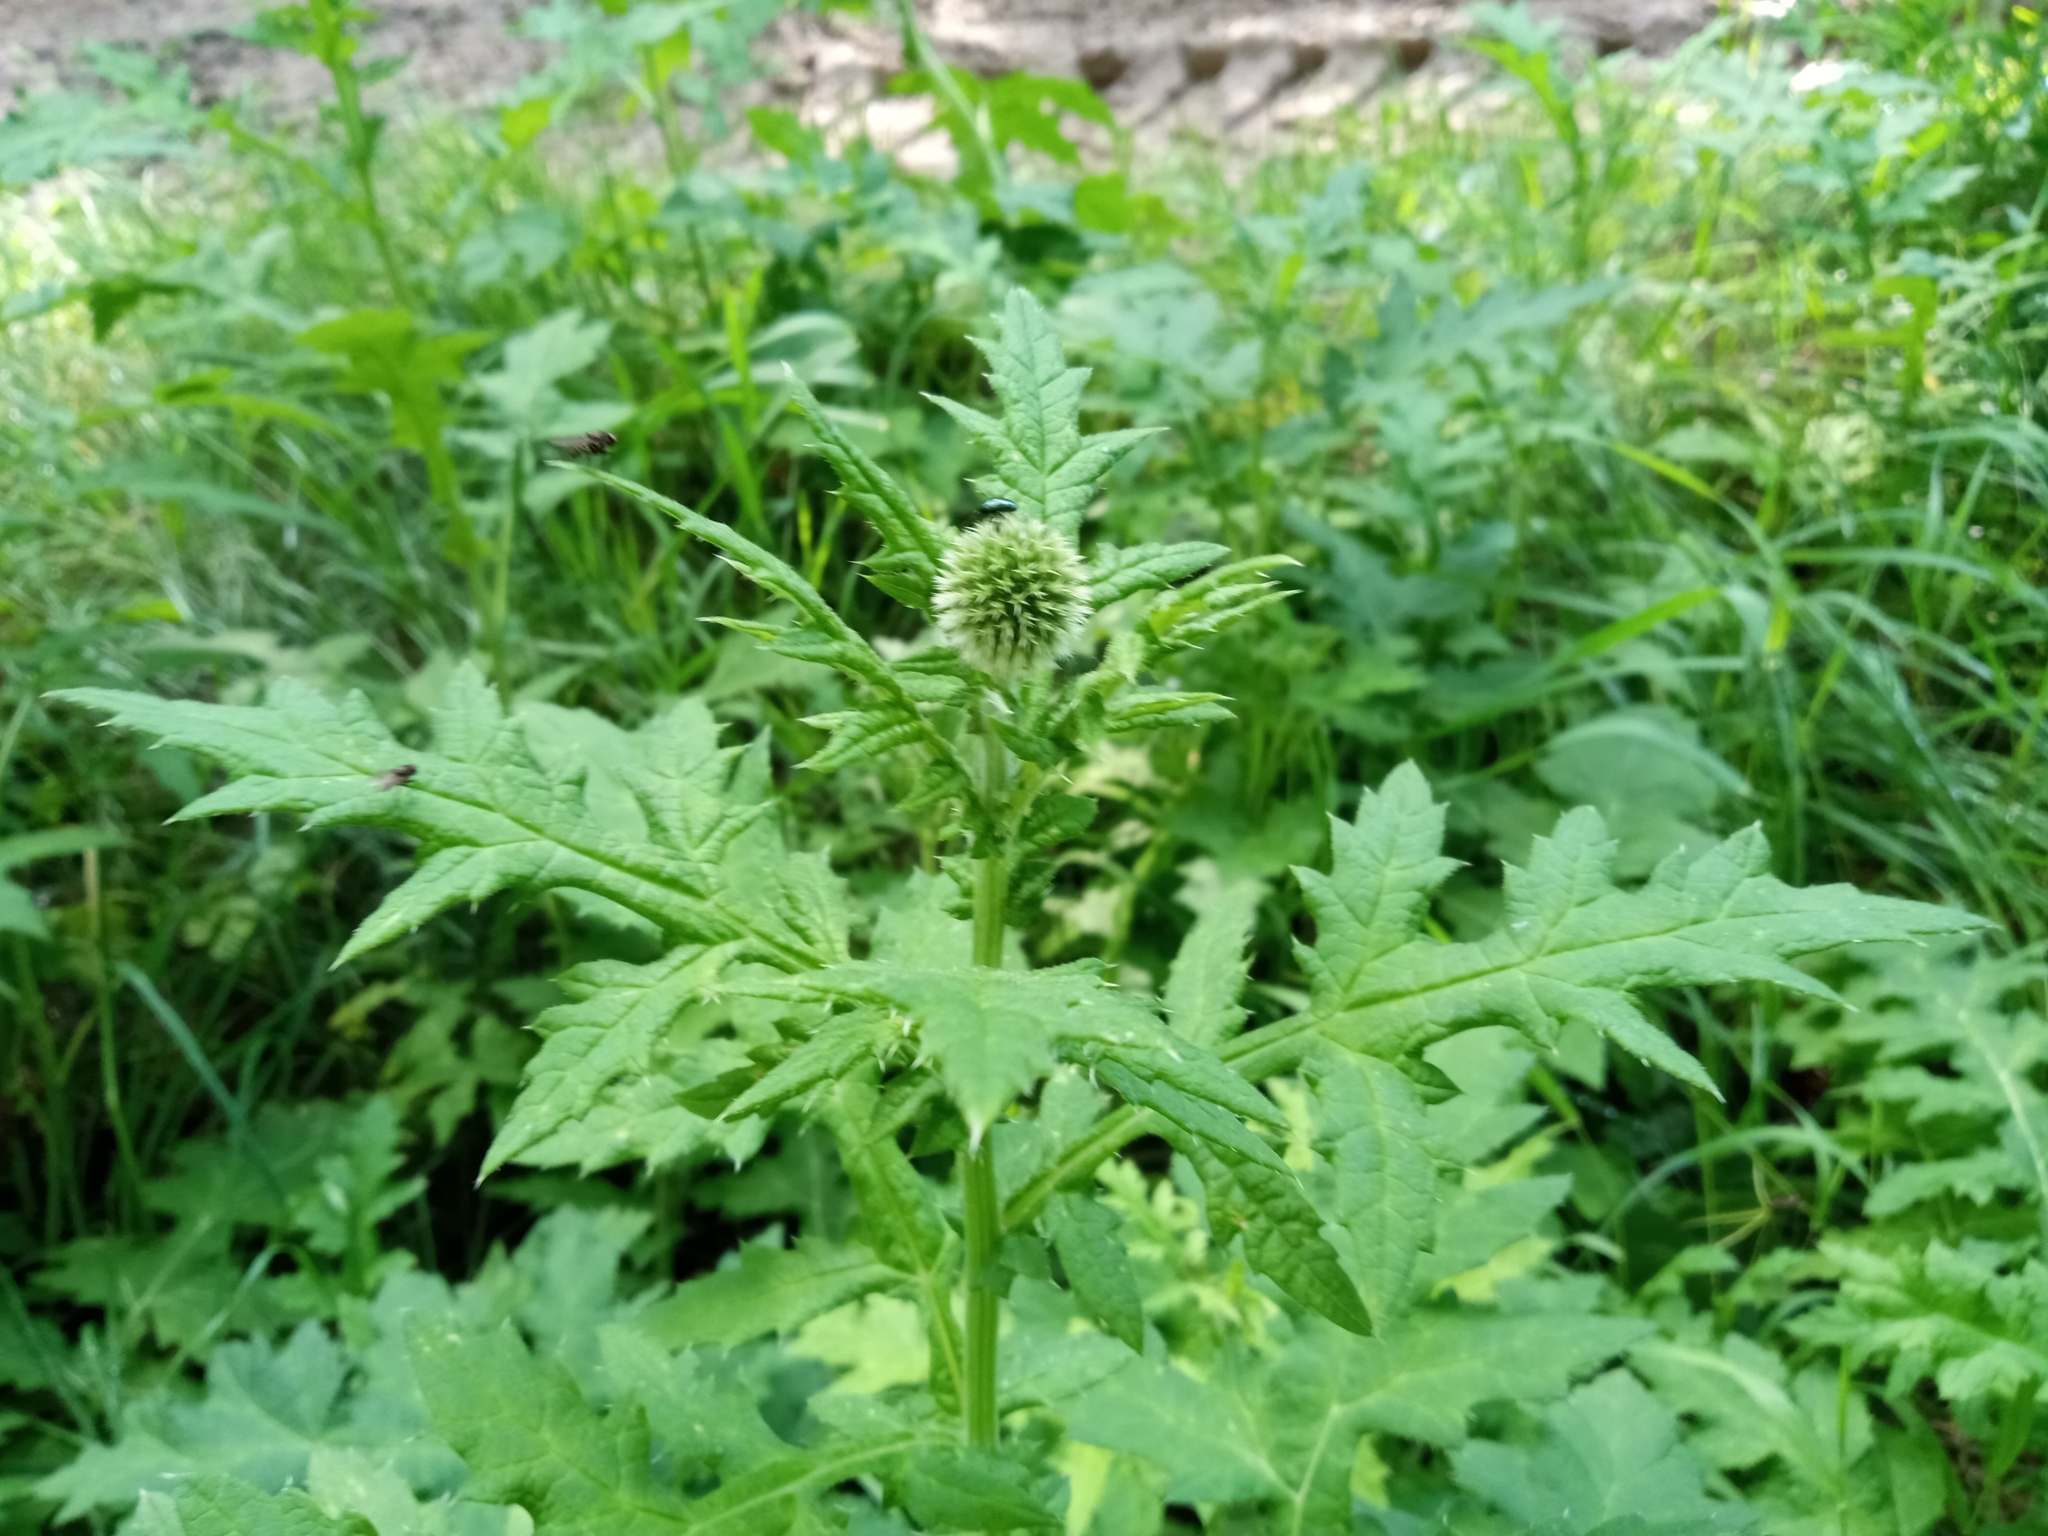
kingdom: Plantae
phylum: Tracheophyta
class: Magnoliopsida
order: Asterales
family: Asteraceae
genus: Echinops
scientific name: Echinops sphaerocephalus
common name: Glandular globe-thistle
